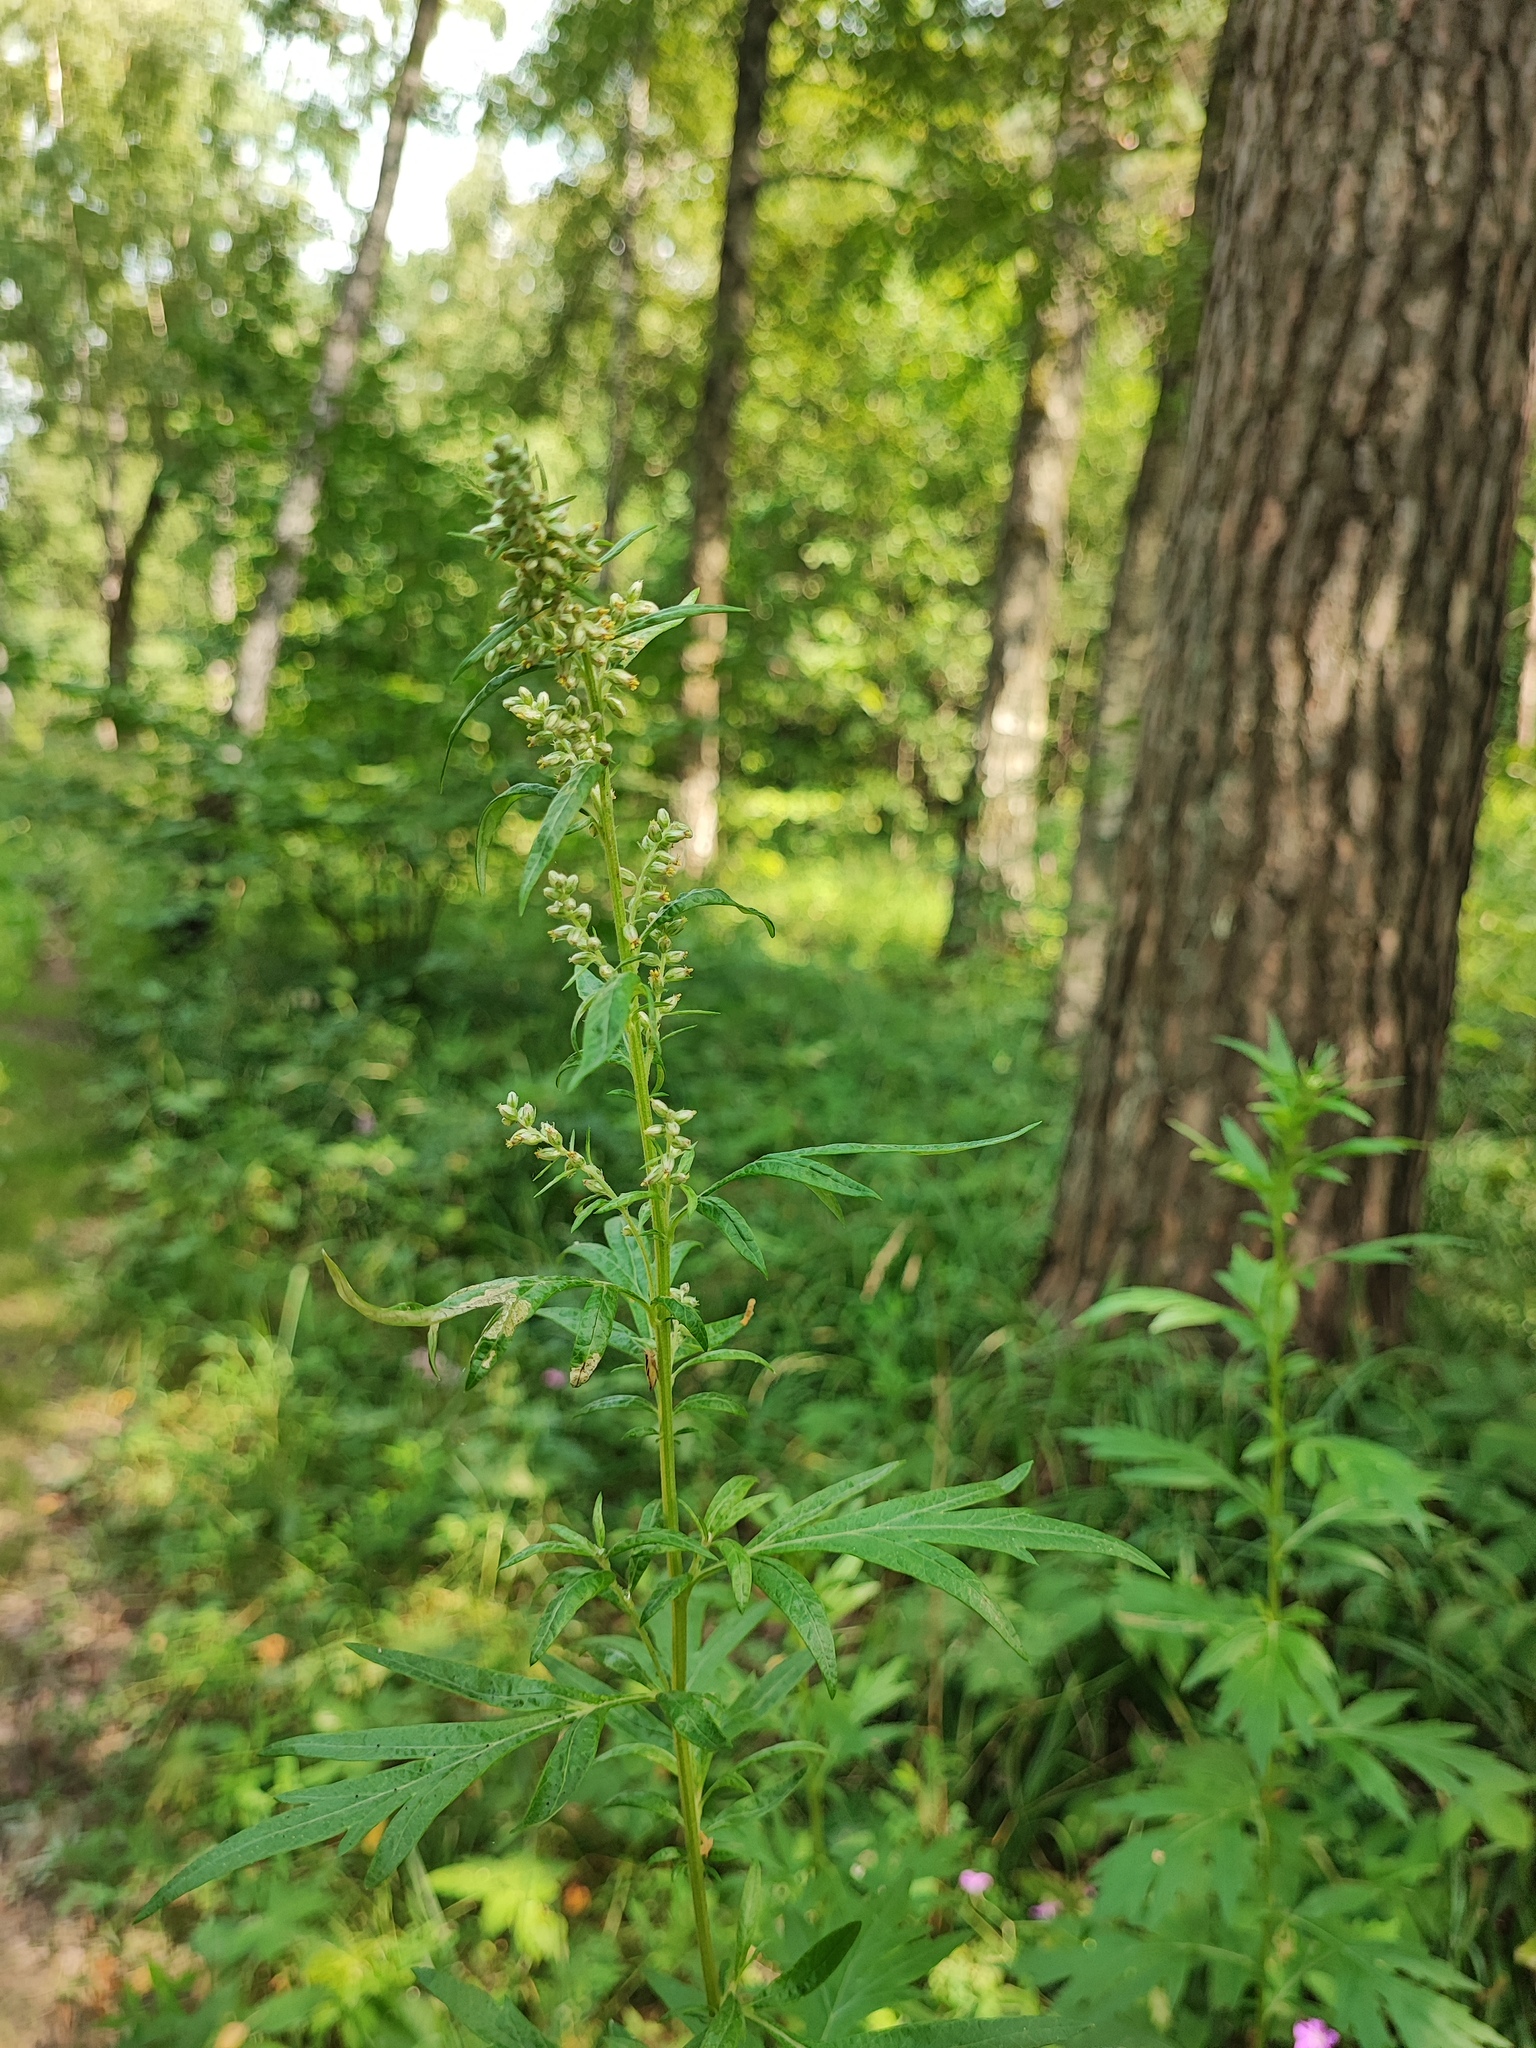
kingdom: Plantae
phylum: Tracheophyta
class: Magnoliopsida
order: Asterales
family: Asteraceae
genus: Artemisia
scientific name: Artemisia vulgaris
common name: Mugwort
